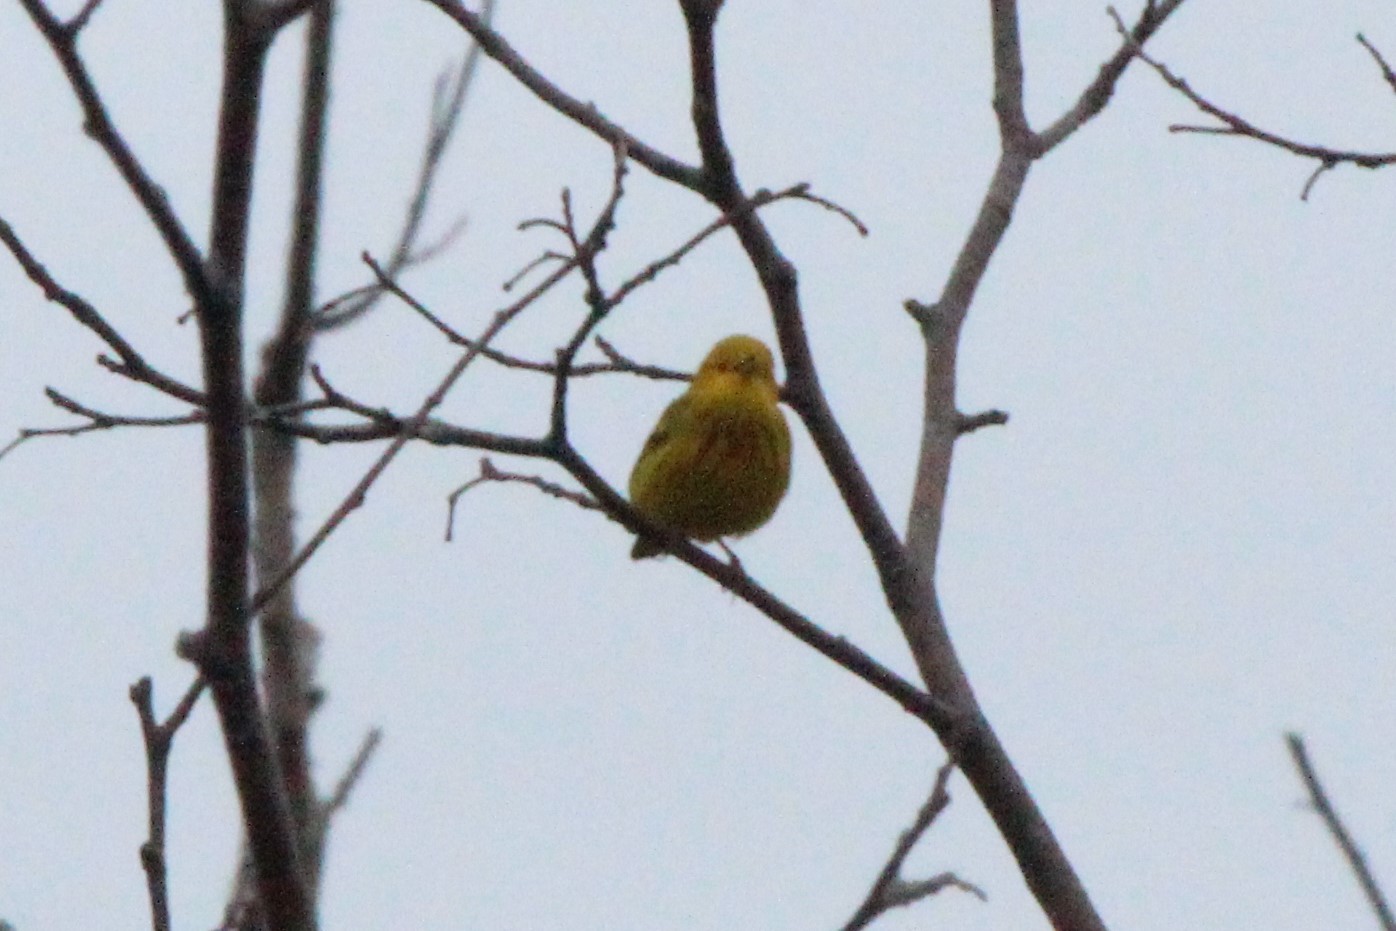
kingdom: Animalia
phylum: Chordata
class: Aves
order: Passeriformes
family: Parulidae
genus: Setophaga
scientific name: Setophaga petechia
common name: Yellow warbler
